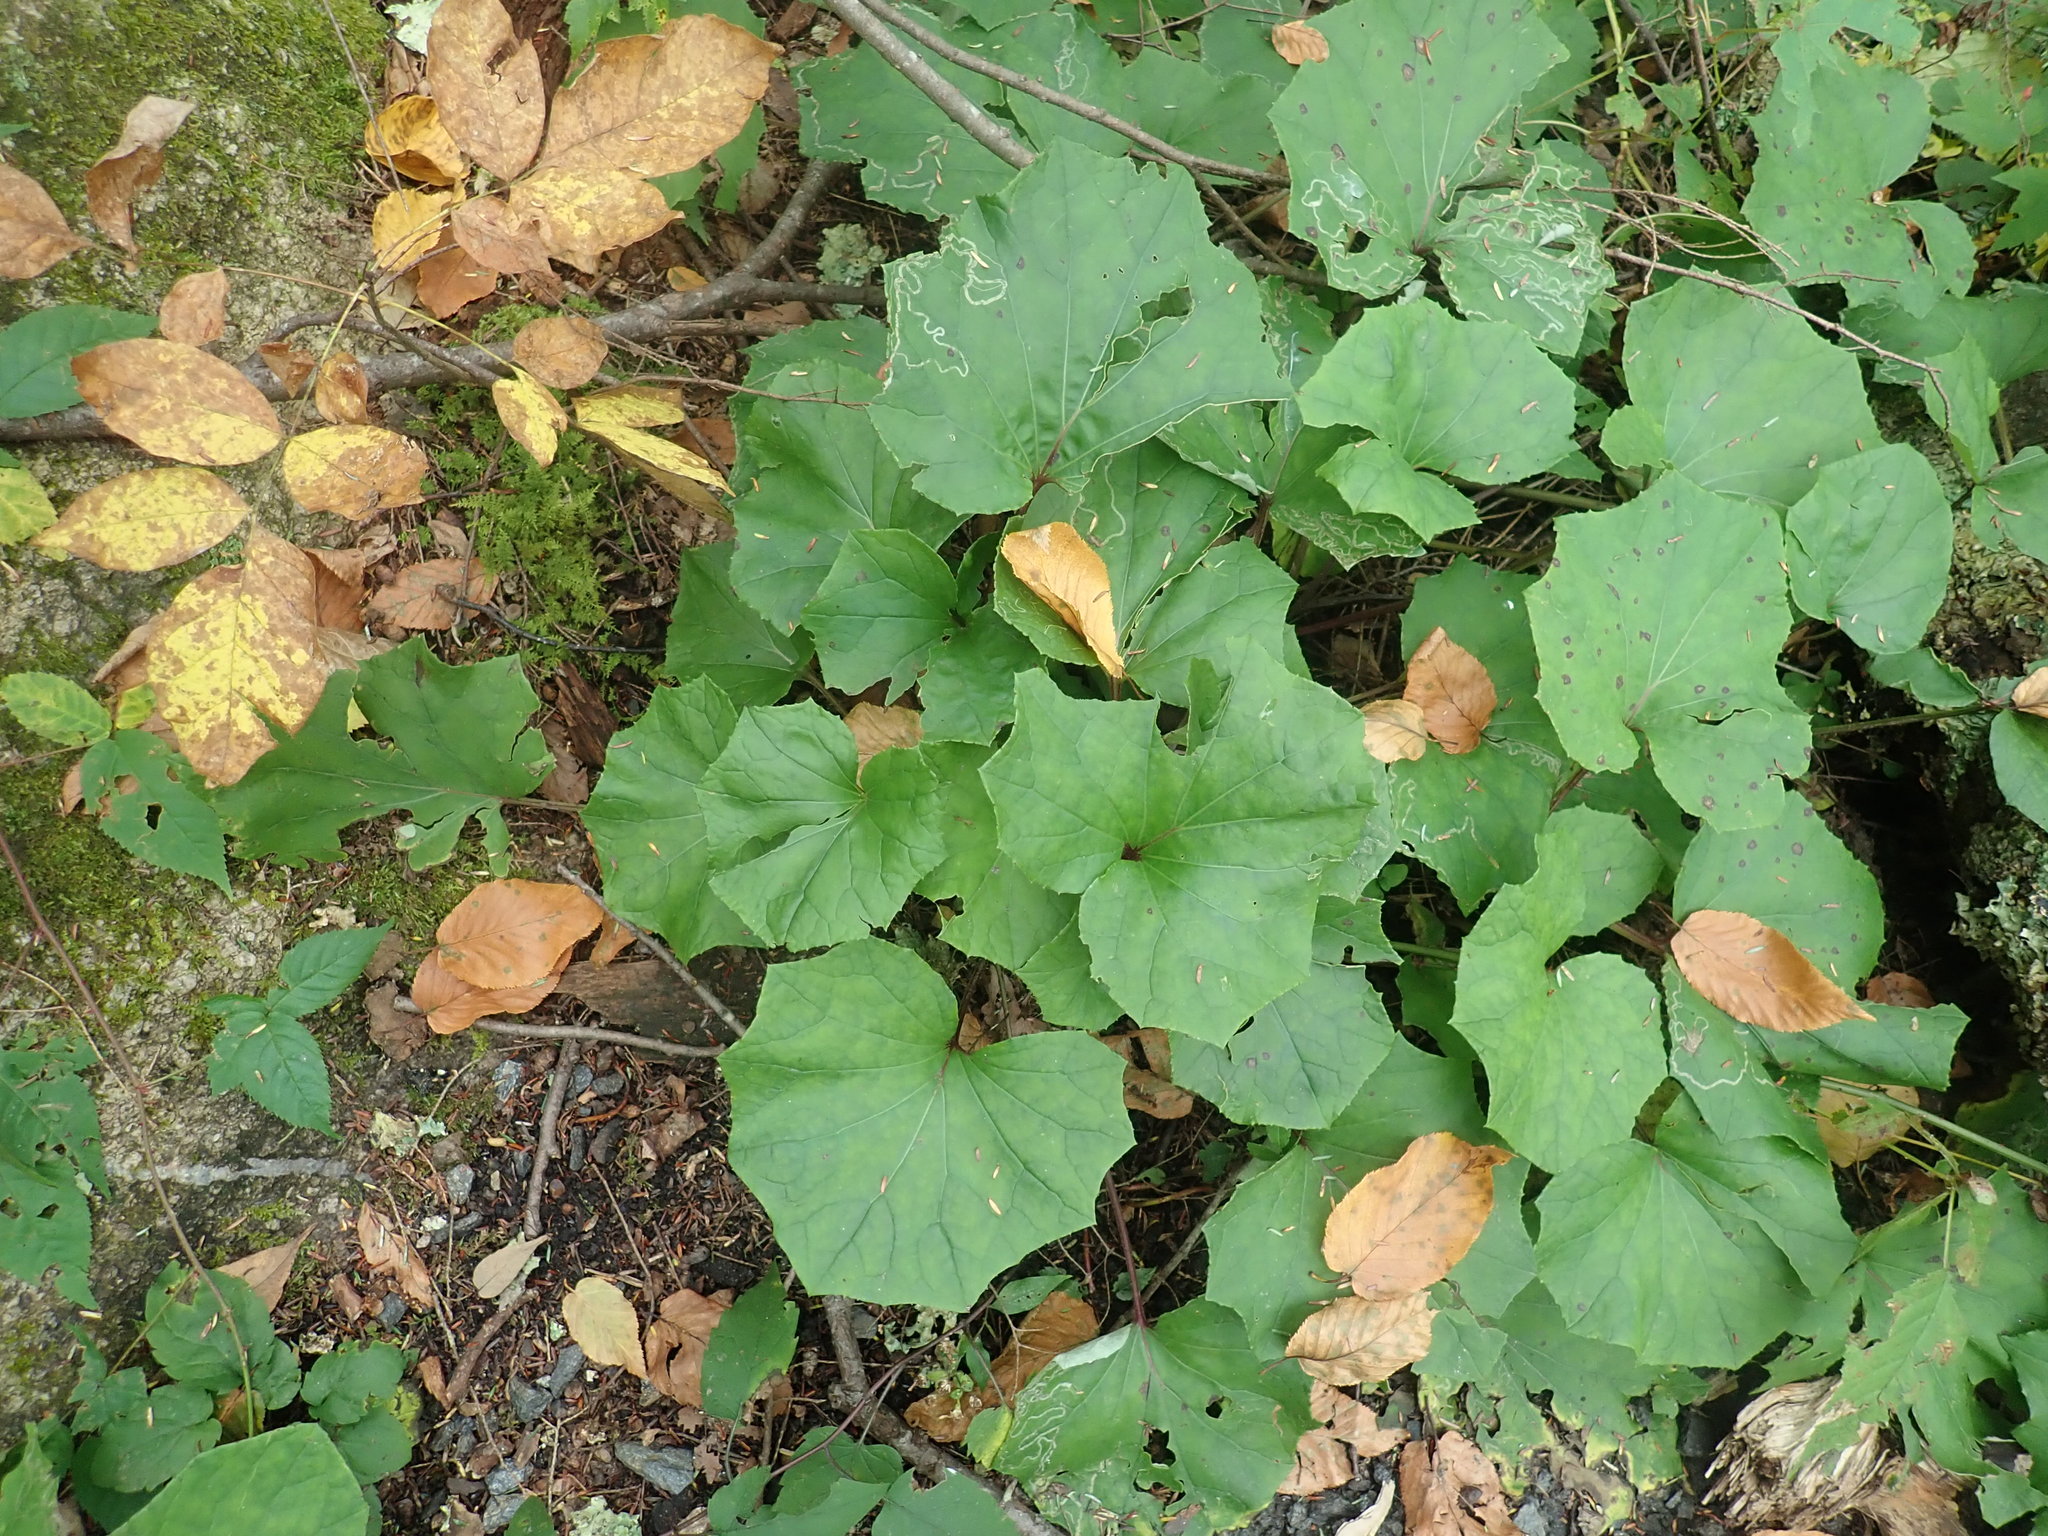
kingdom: Plantae
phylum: Tracheophyta
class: Magnoliopsida
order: Asterales
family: Asteraceae
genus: Tussilago
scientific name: Tussilago farfara
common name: Coltsfoot
